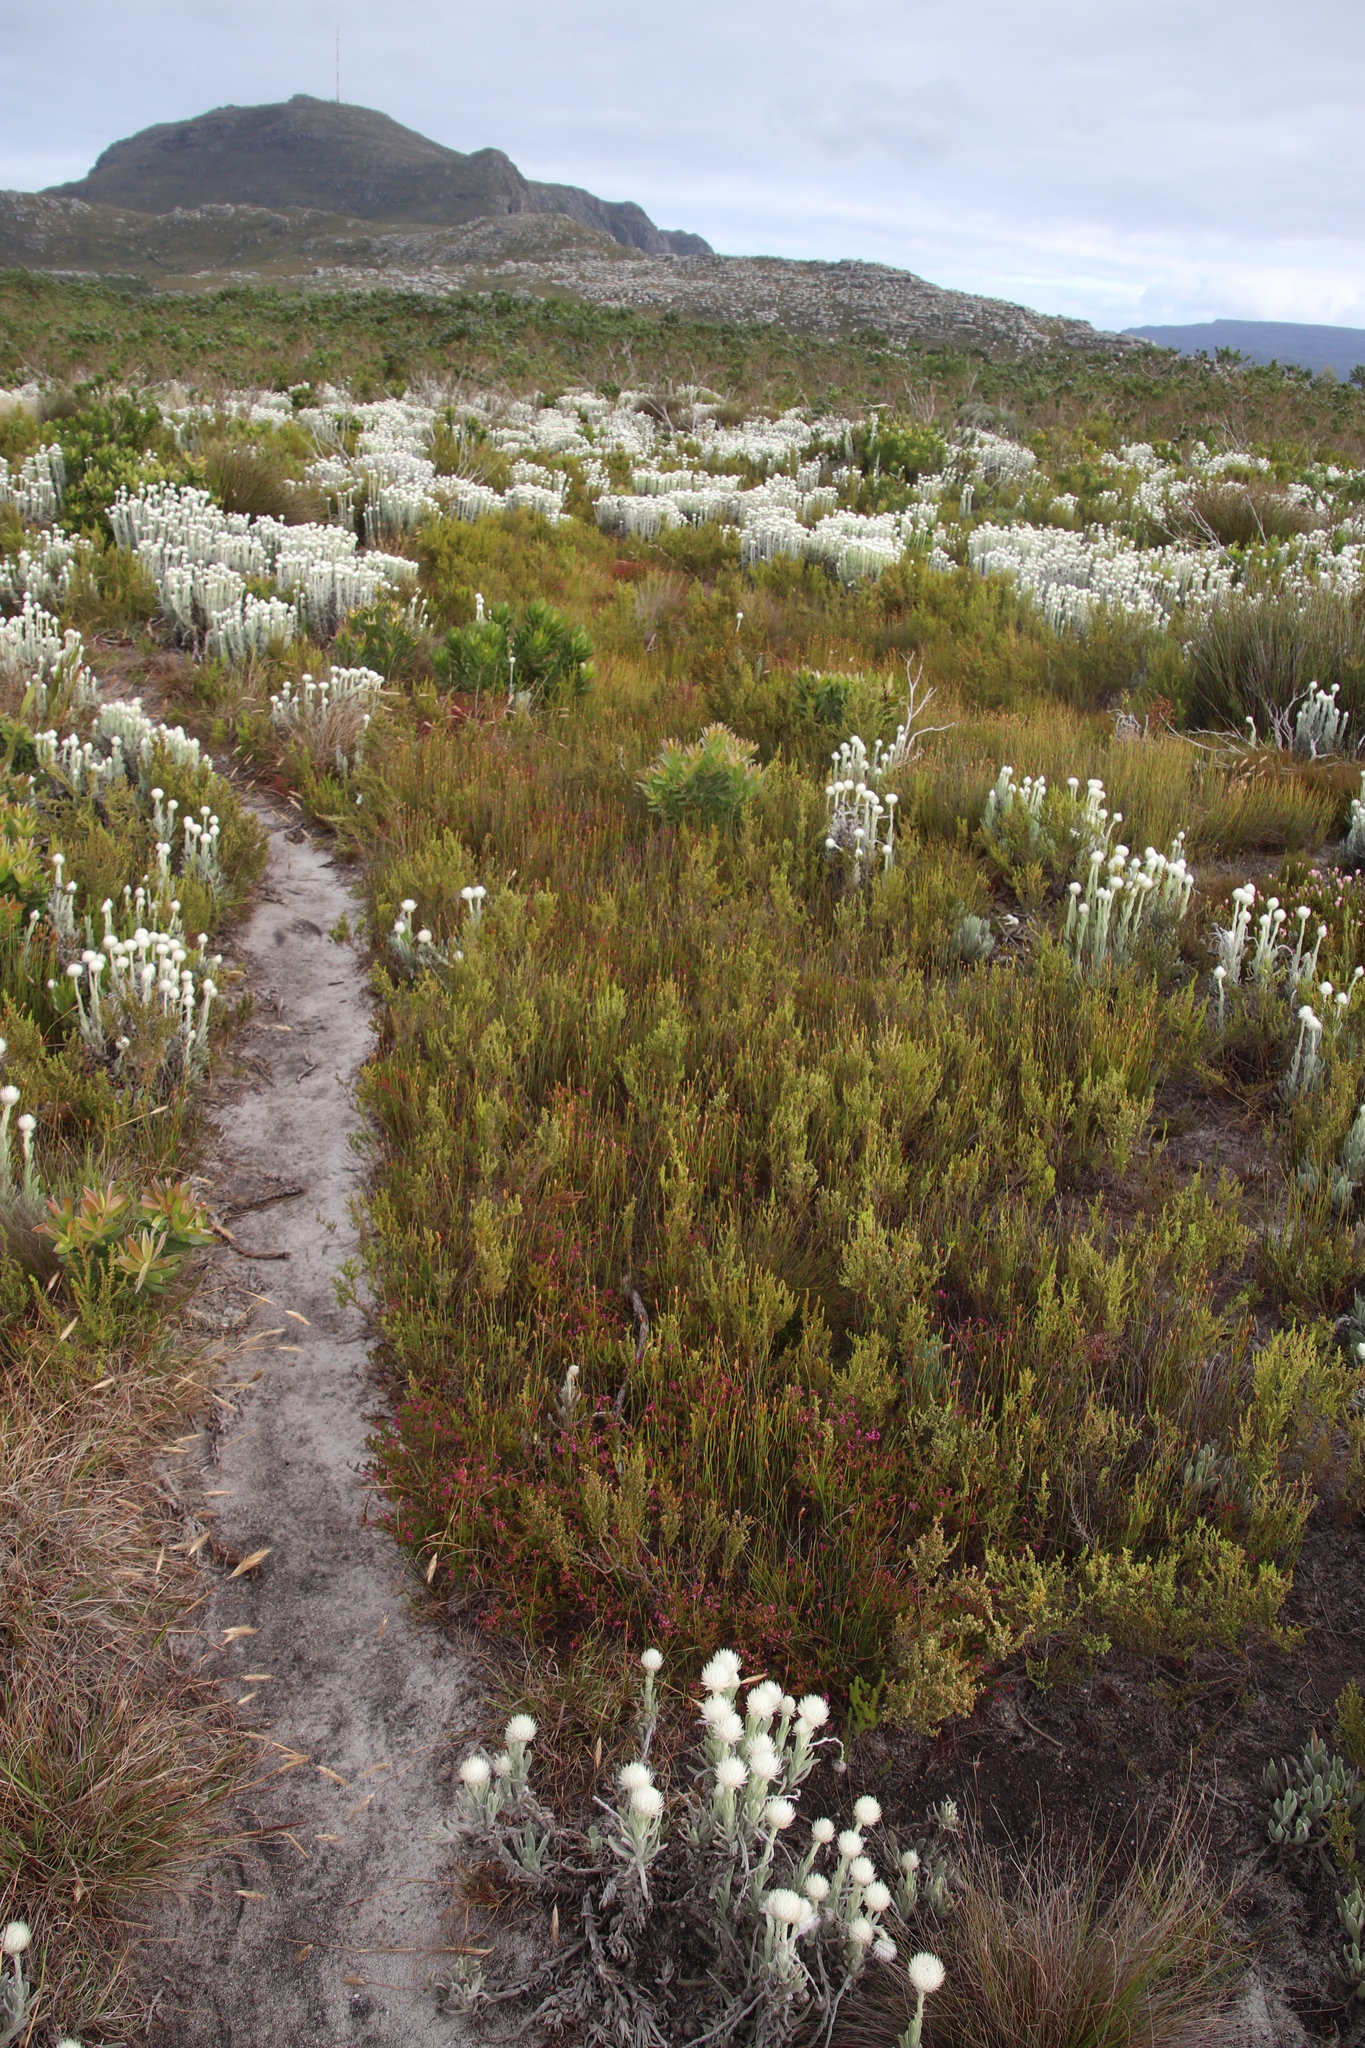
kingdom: Plantae
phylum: Tracheophyta
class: Magnoliopsida
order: Ericales
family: Ericaceae
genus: Erica
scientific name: Erica multumbellifera
